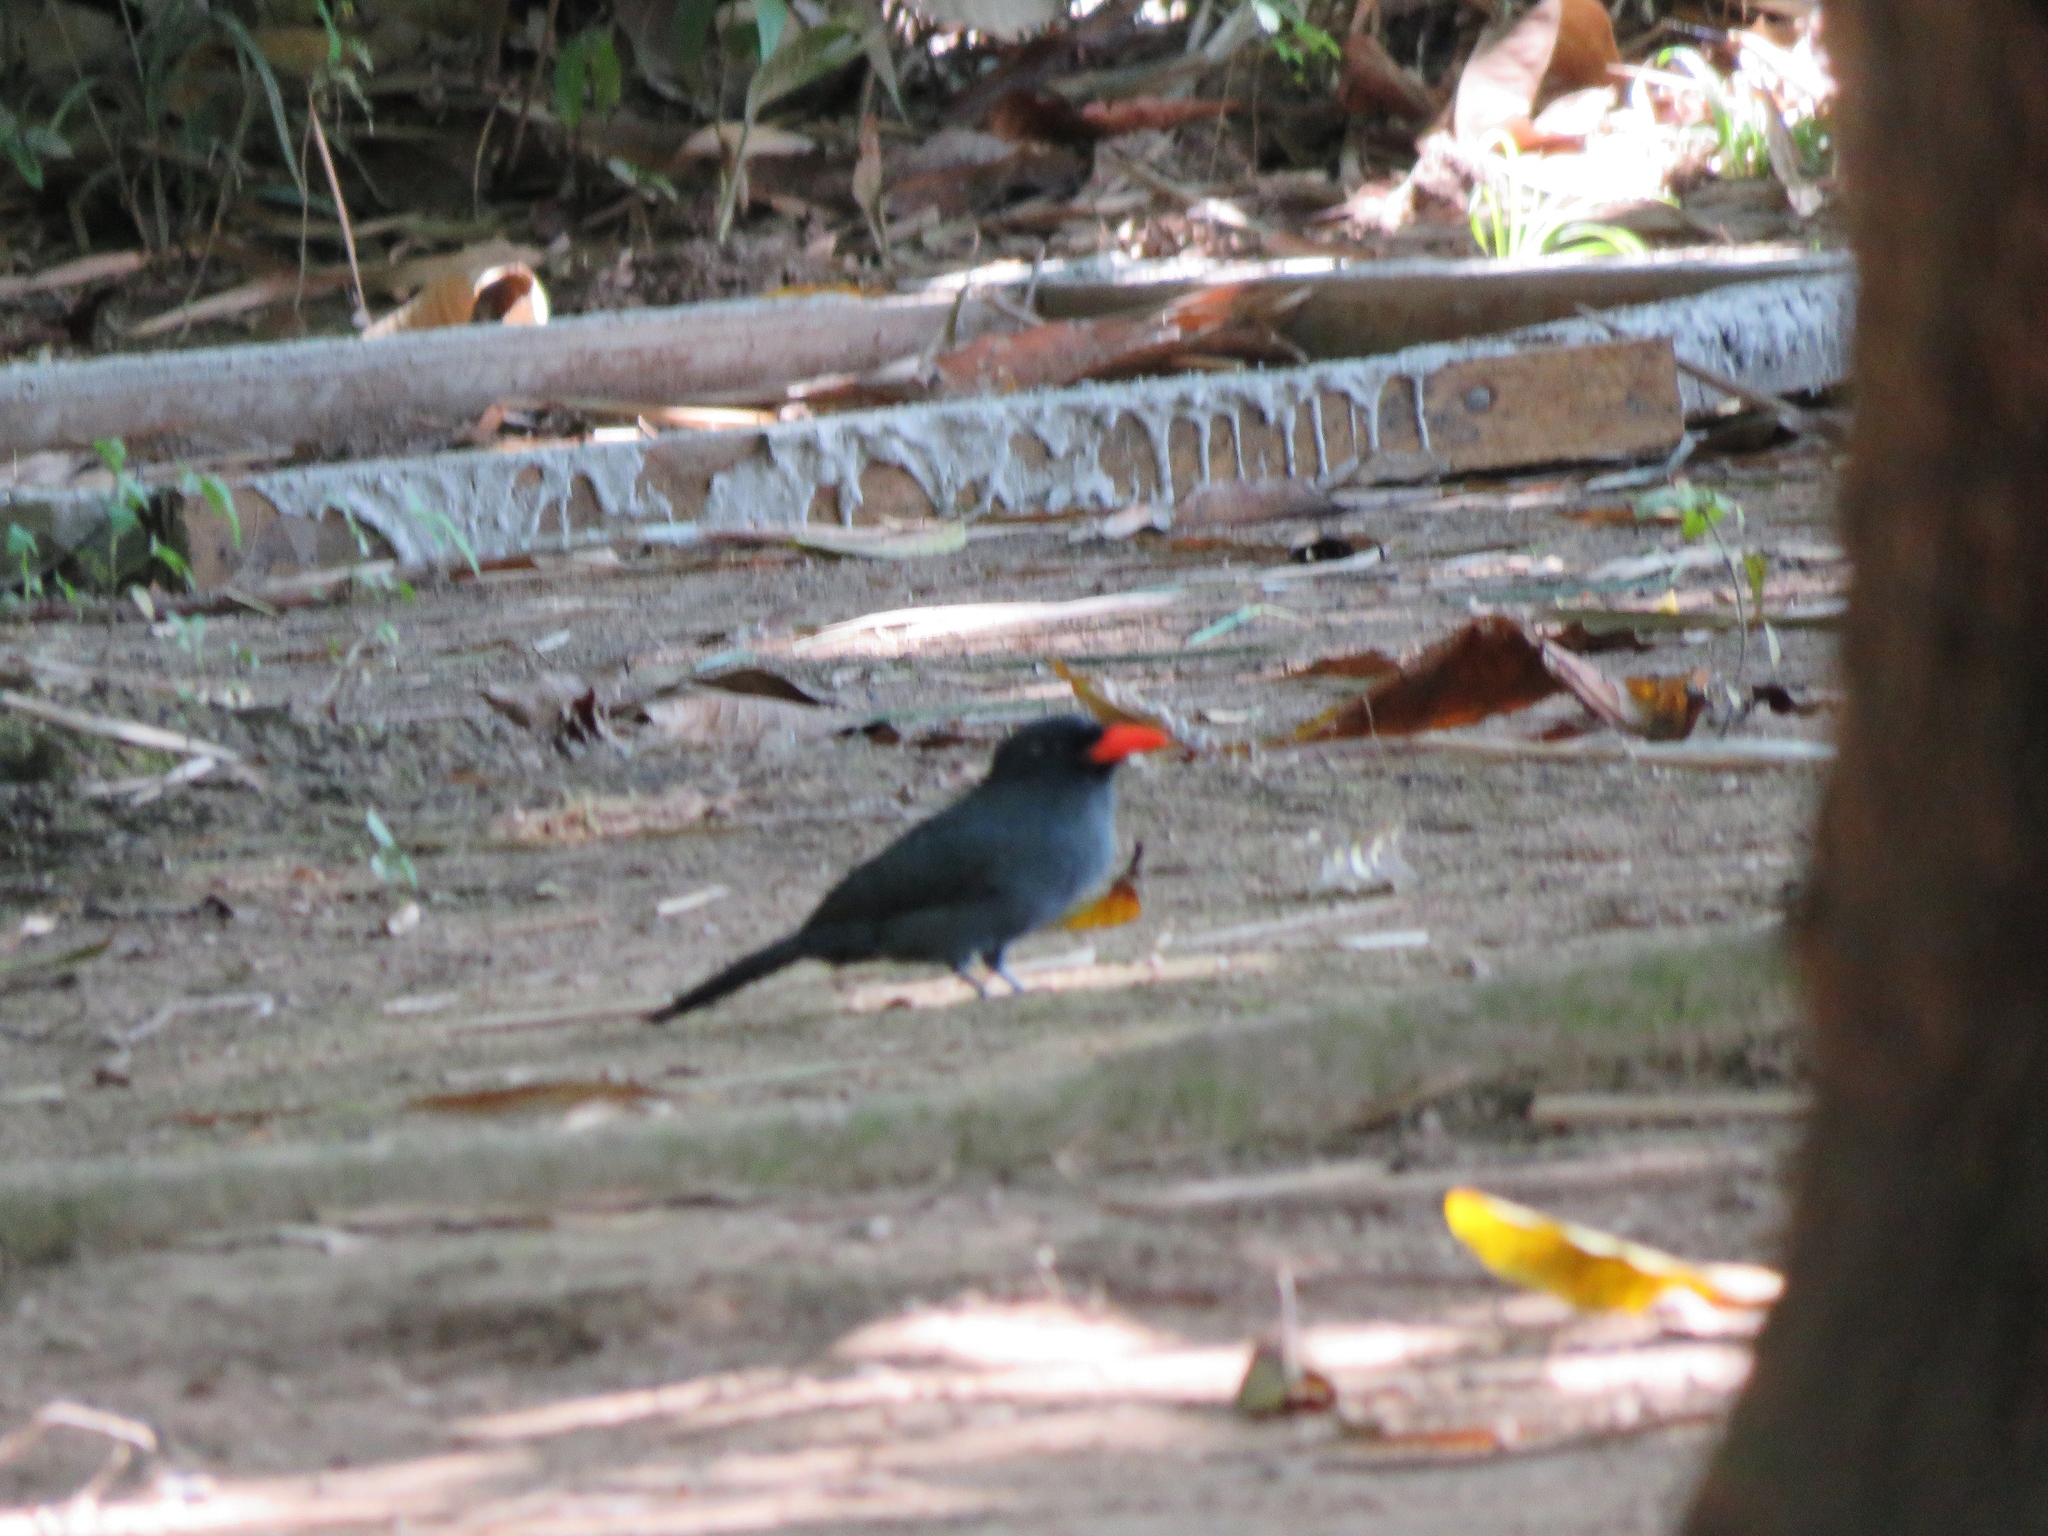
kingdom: Animalia
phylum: Chordata
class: Aves
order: Piciformes
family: Bucconidae
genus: Monasa
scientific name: Monasa nigrifrons
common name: Black-fronted nunbird
